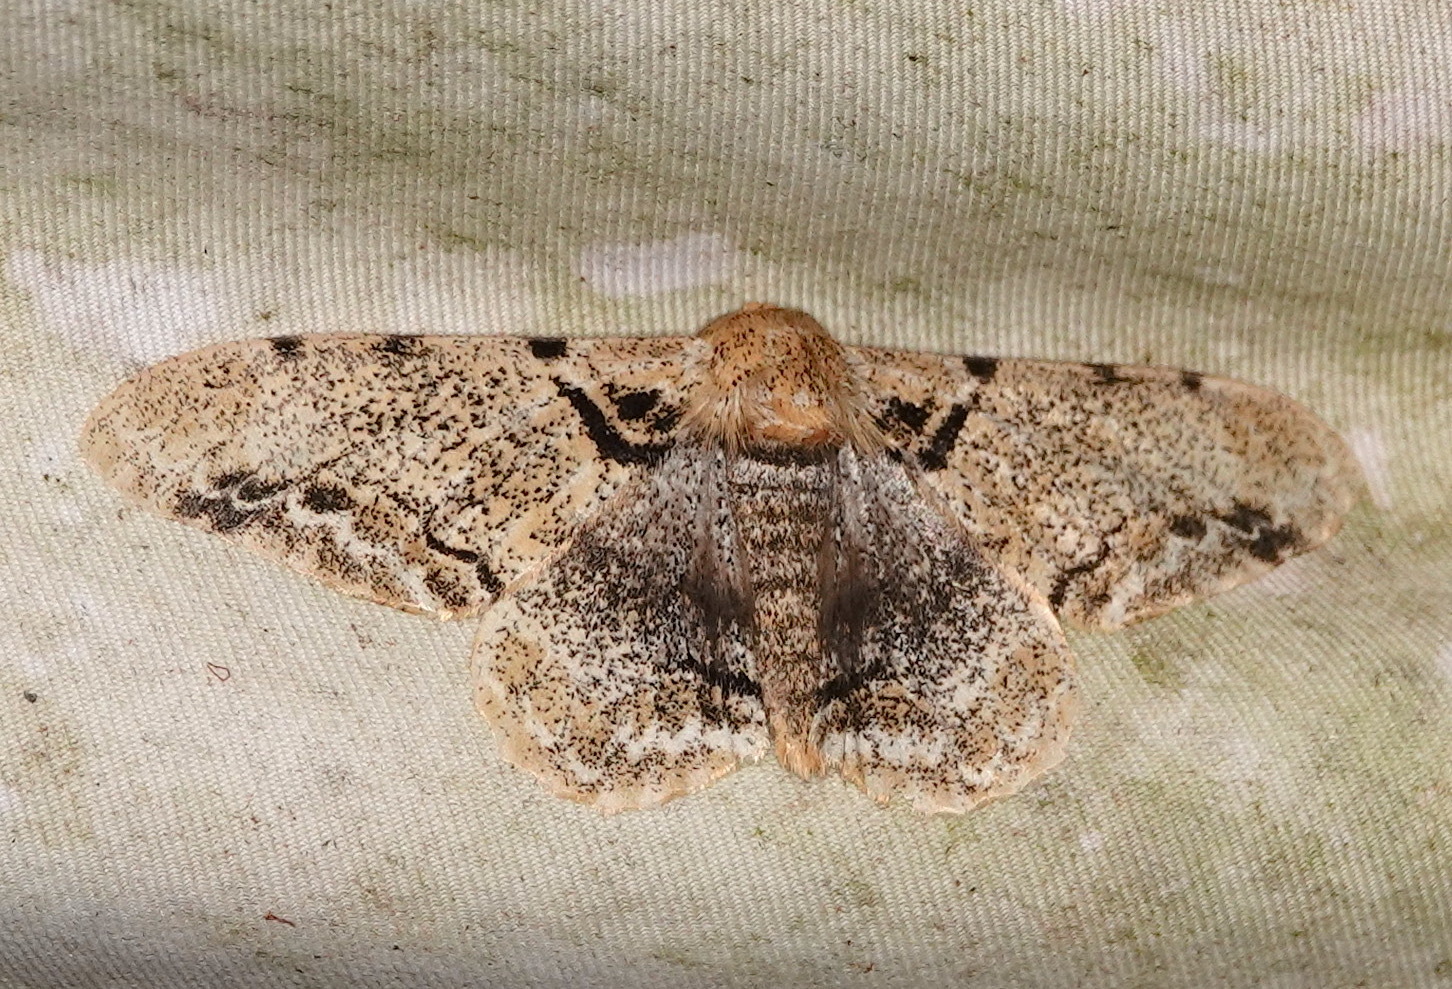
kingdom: Animalia
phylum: Arthropoda
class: Insecta
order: Lepidoptera
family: Geometridae
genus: Biston
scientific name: Biston insularis
